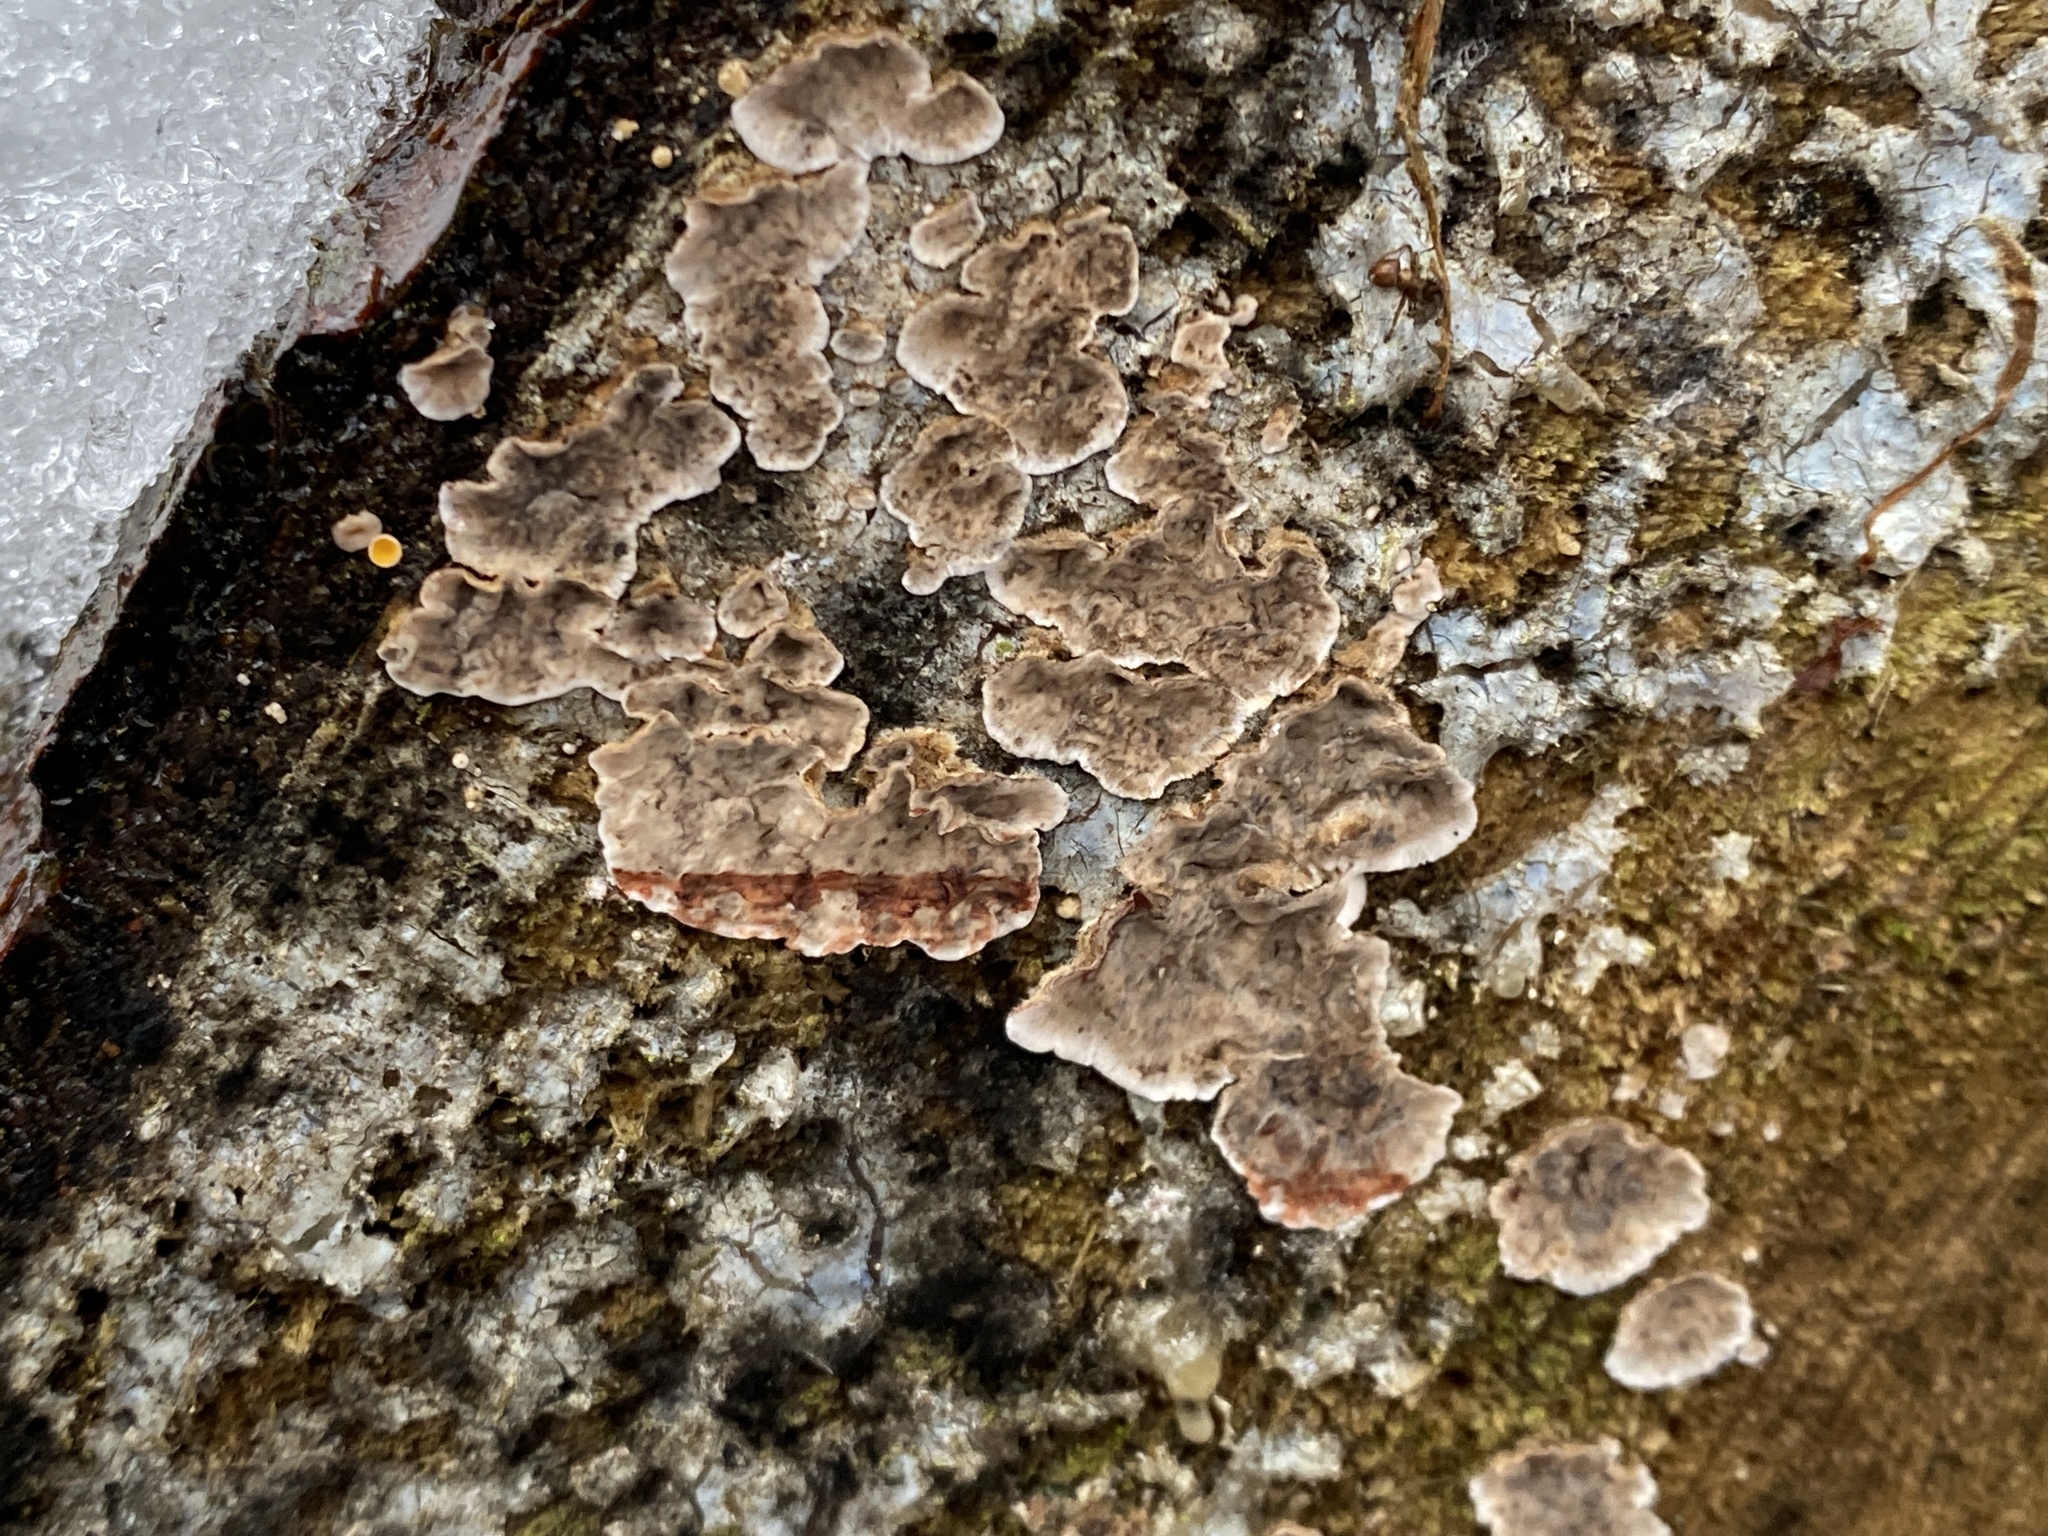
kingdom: Fungi
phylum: Basidiomycota
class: Agaricomycetes
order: Russulales
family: Stereaceae
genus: Stereum
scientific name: Stereum sanguinolentum
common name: Bleeding conifer crust
